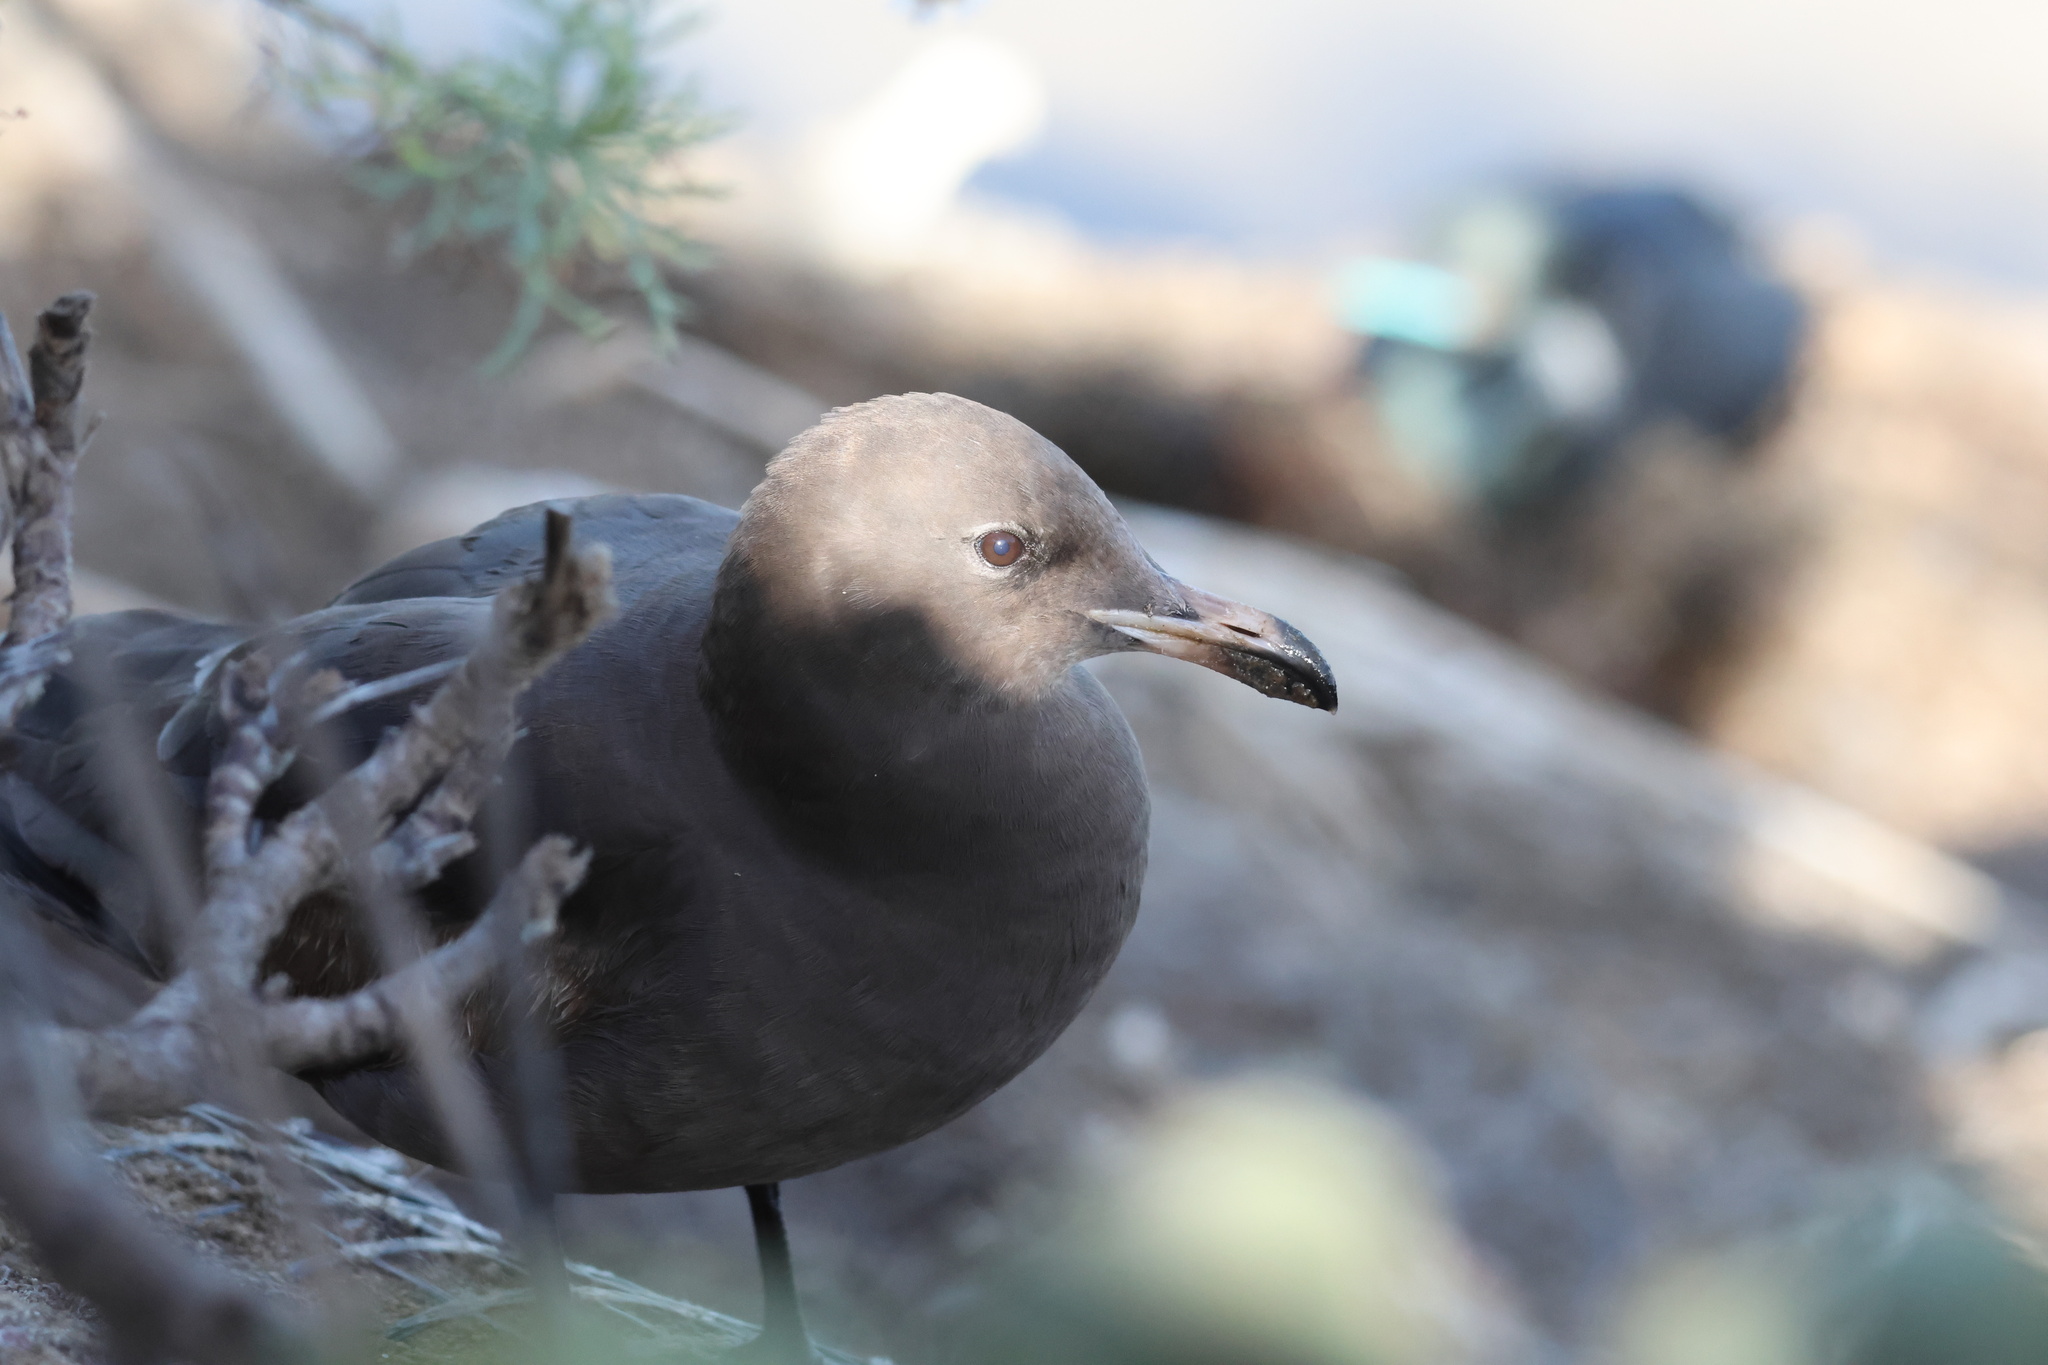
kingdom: Animalia
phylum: Chordata
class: Aves
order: Charadriiformes
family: Laridae
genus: Larus
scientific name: Larus heermanni
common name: Heermann's gull
